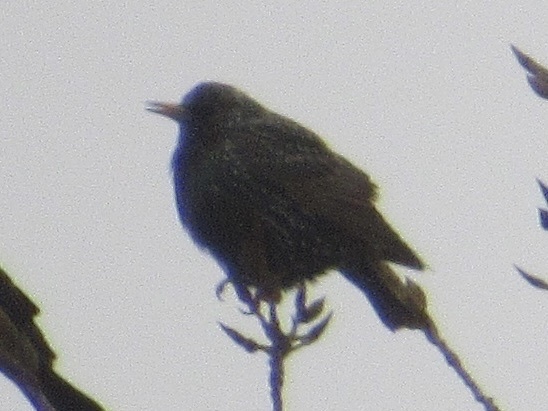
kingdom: Animalia
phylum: Chordata
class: Aves
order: Passeriformes
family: Sturnidae
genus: Sturnus
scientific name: Sturnus vulgaris
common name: Common starling
